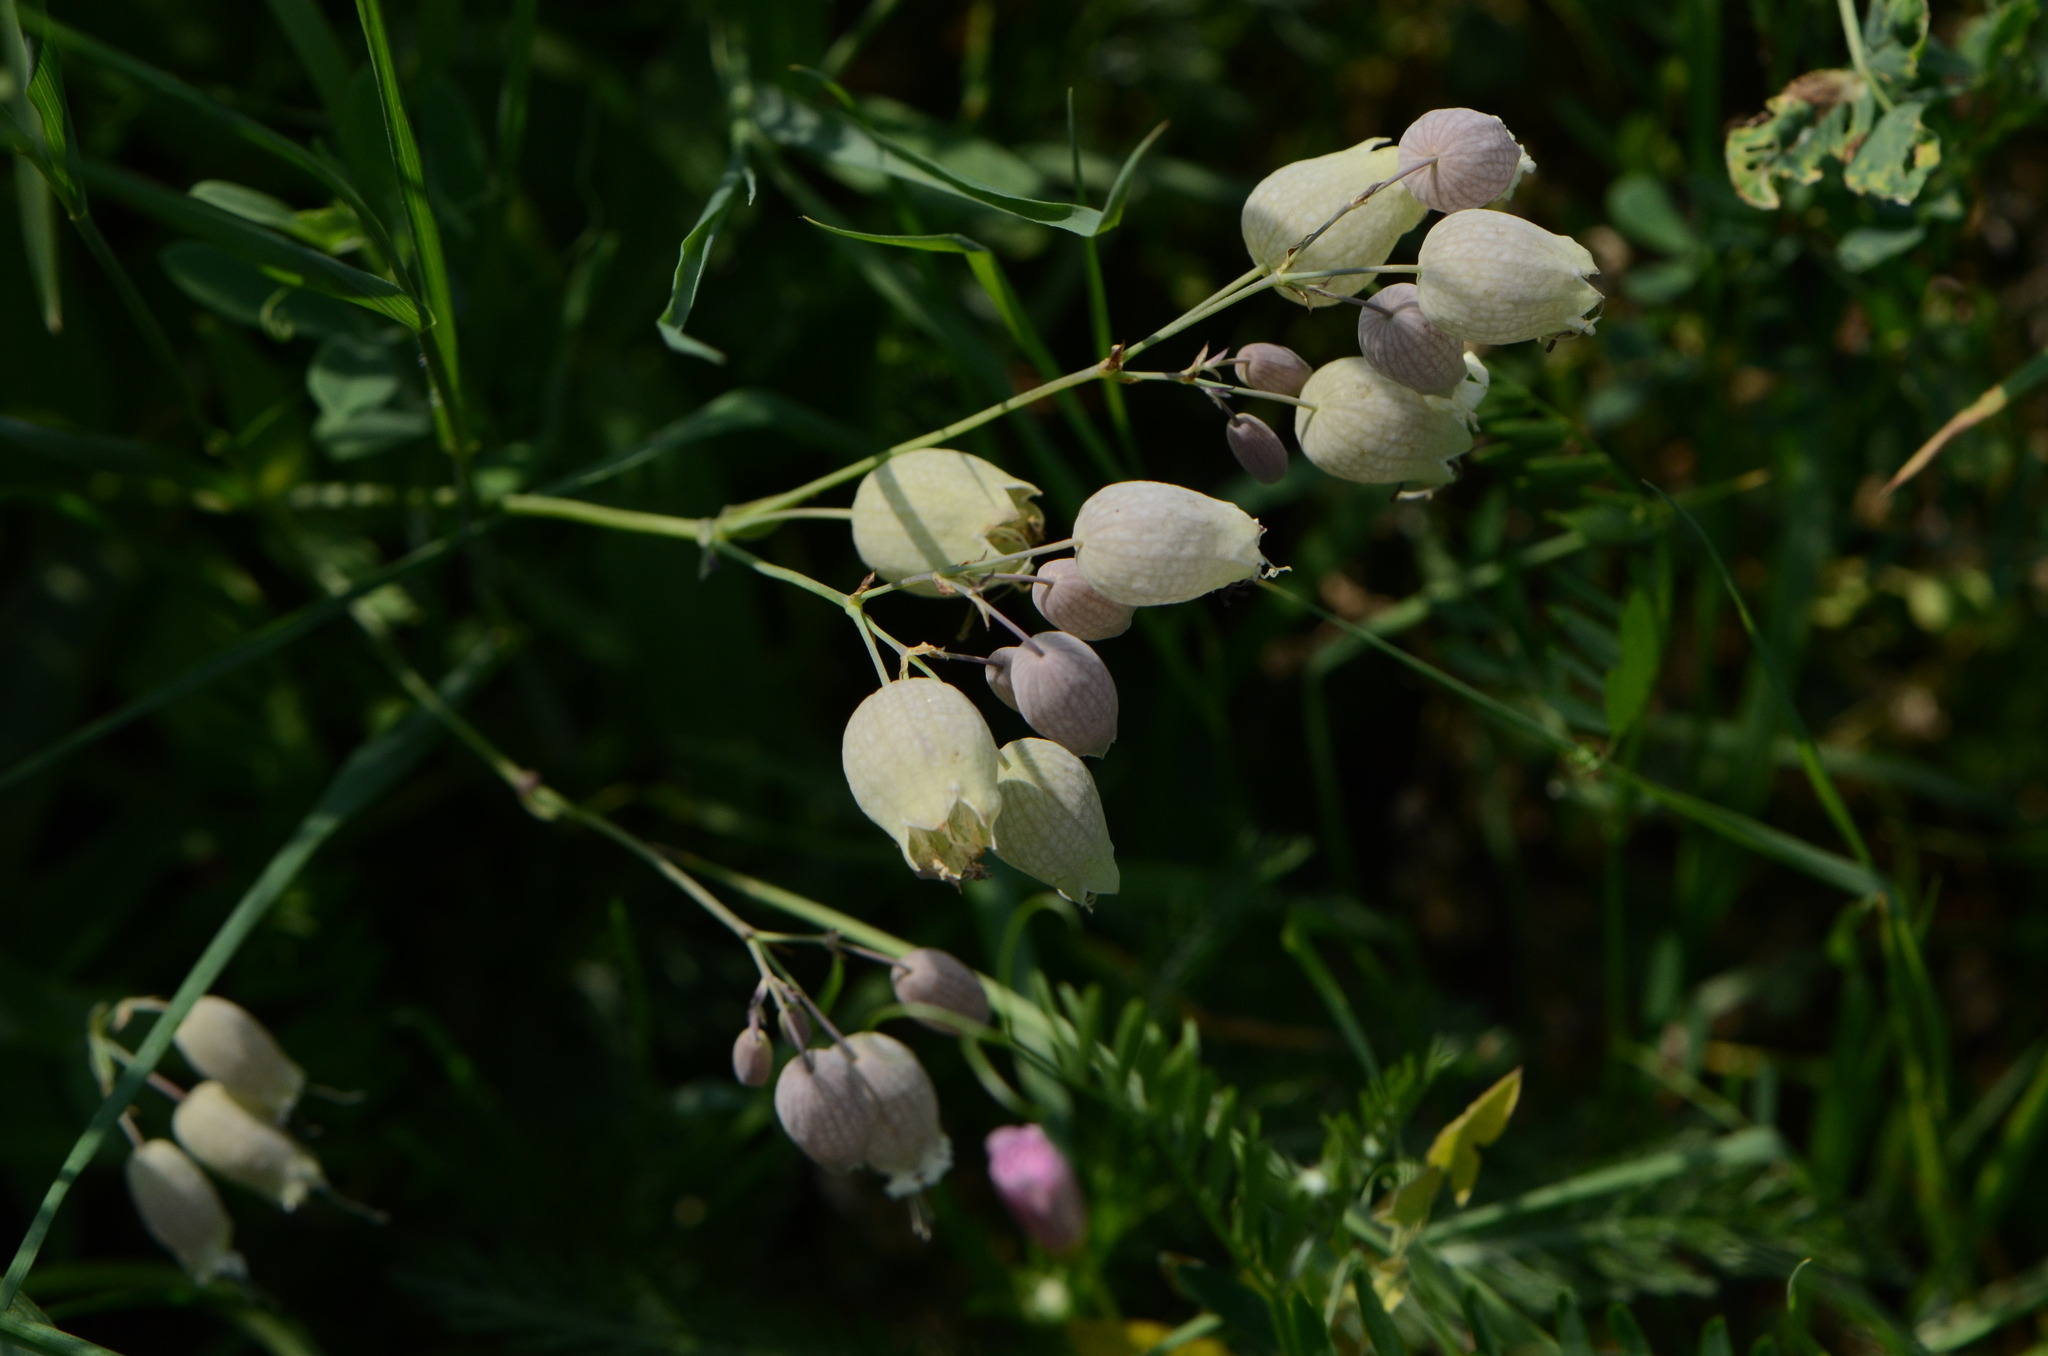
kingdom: Plantae
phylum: Tracheophyta
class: Magnoliopsida
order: Caryophyllales
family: Caryophyllaceae
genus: Silene
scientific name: Silene vulgaris
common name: Bladder campion
